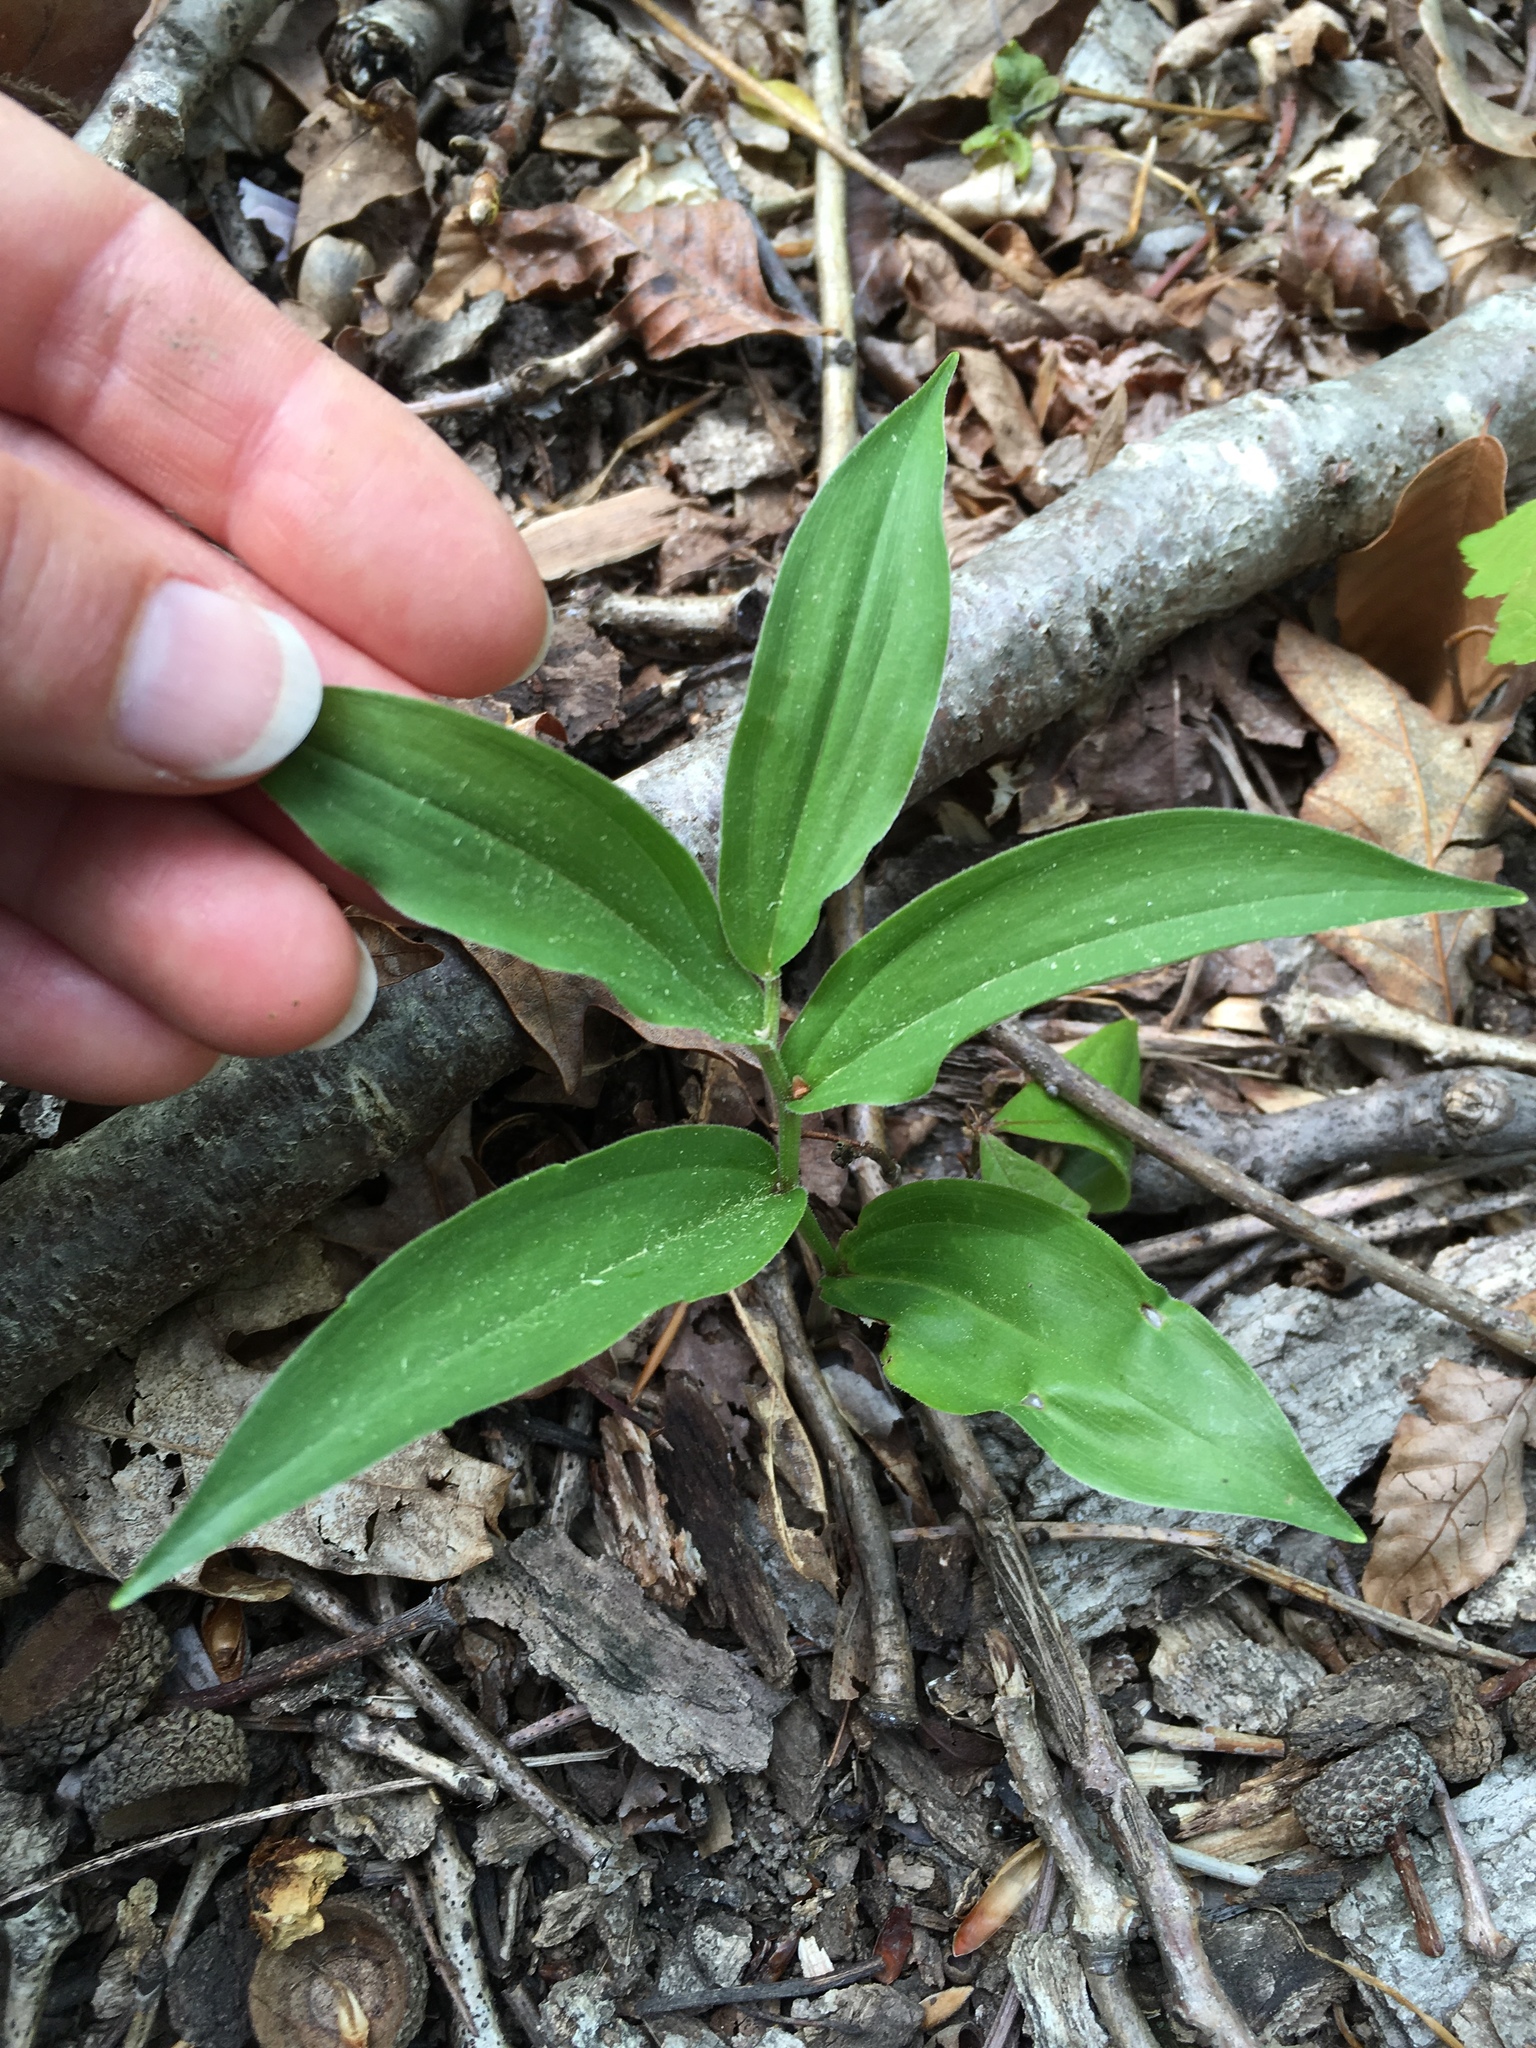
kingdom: Plantae
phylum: Tracheophyta
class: Liliopsida
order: Asparagales
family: Asparagaceae
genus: Maianthemum
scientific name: Maianthemum racemosum
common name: False spikenard
